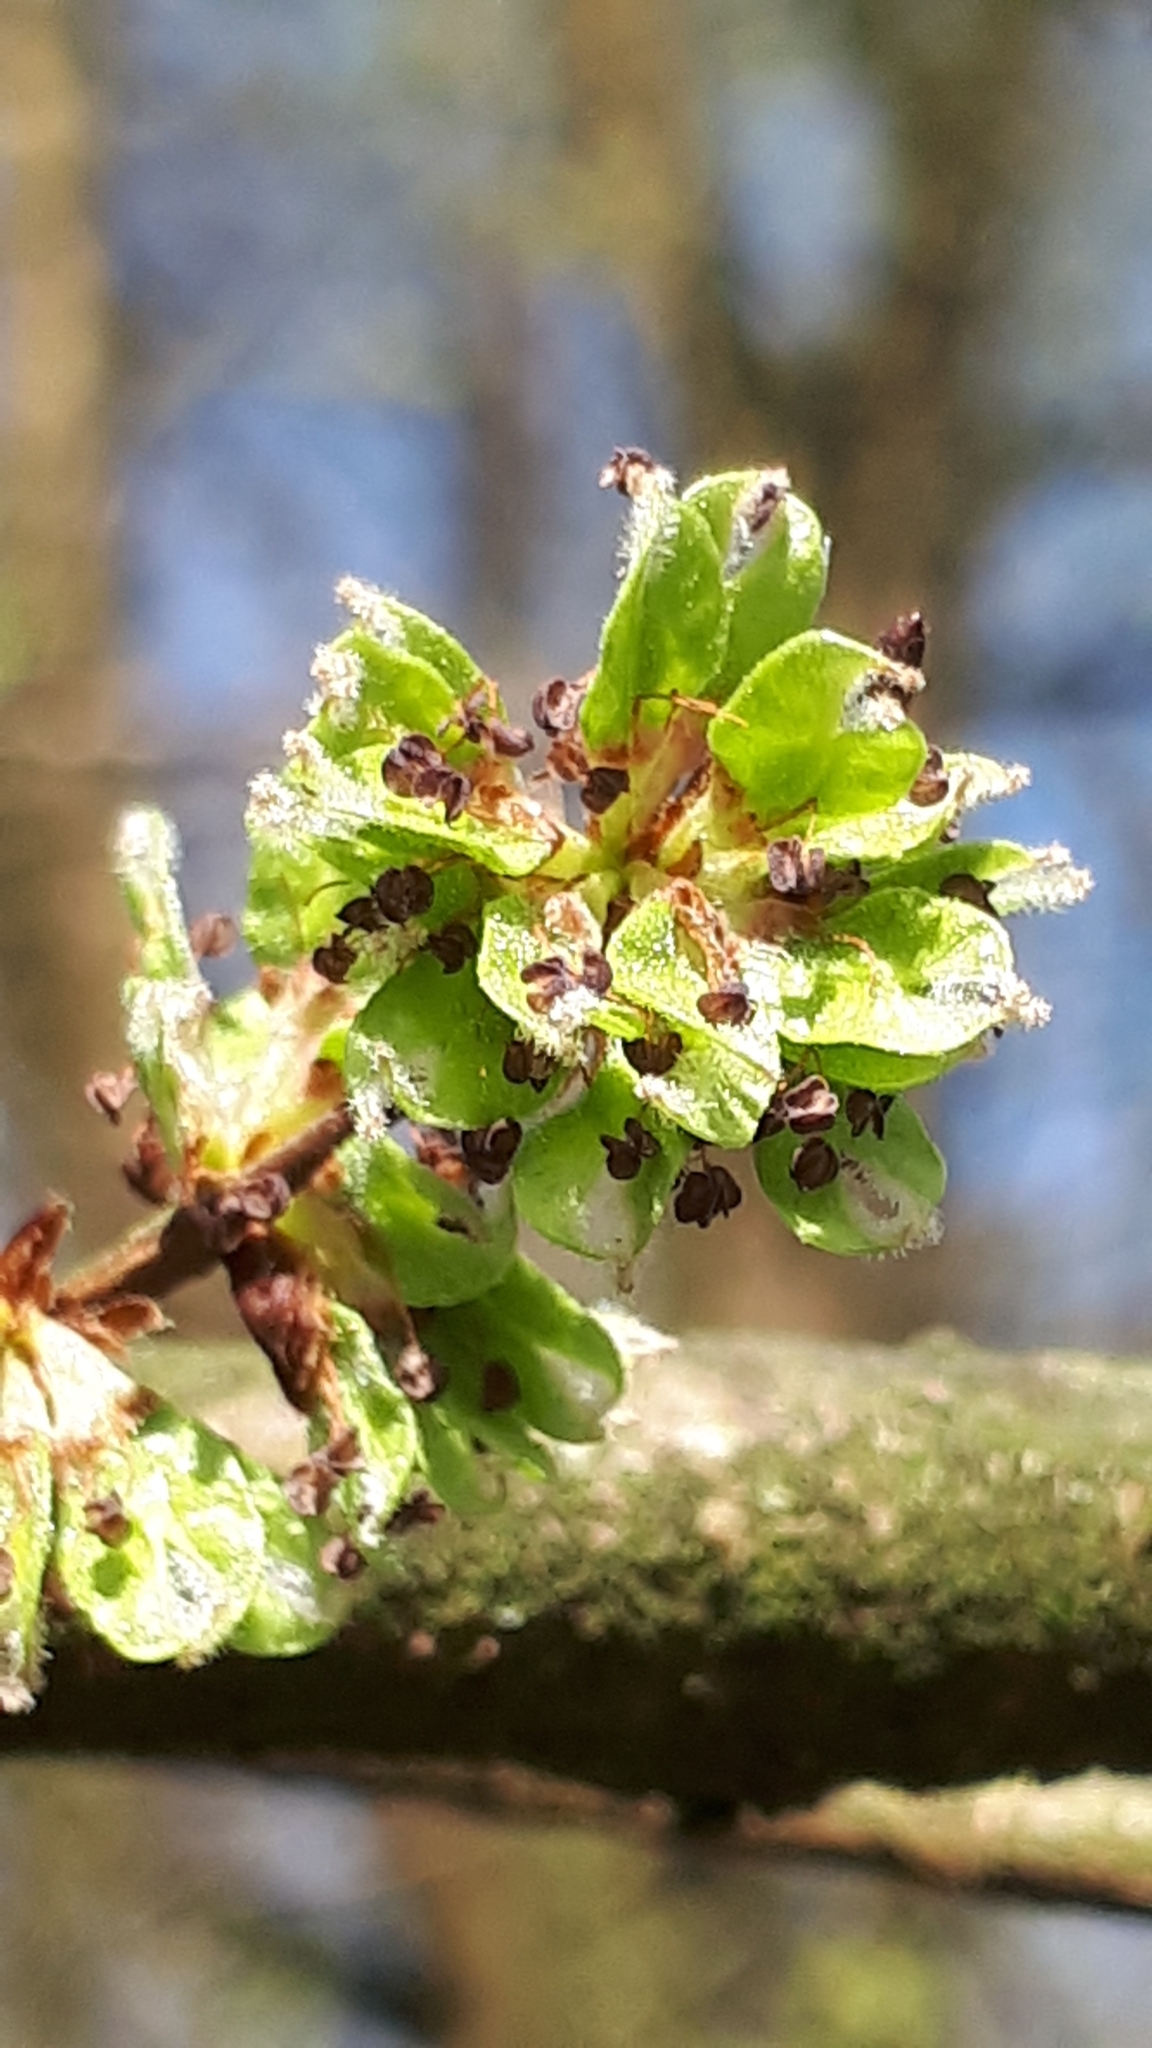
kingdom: Plantae
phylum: Tracheophyta
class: Magnoliopsida
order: Rosales
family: Ulmaceae
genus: Ulmus
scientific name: Ulmus glabra
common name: Wych elm
